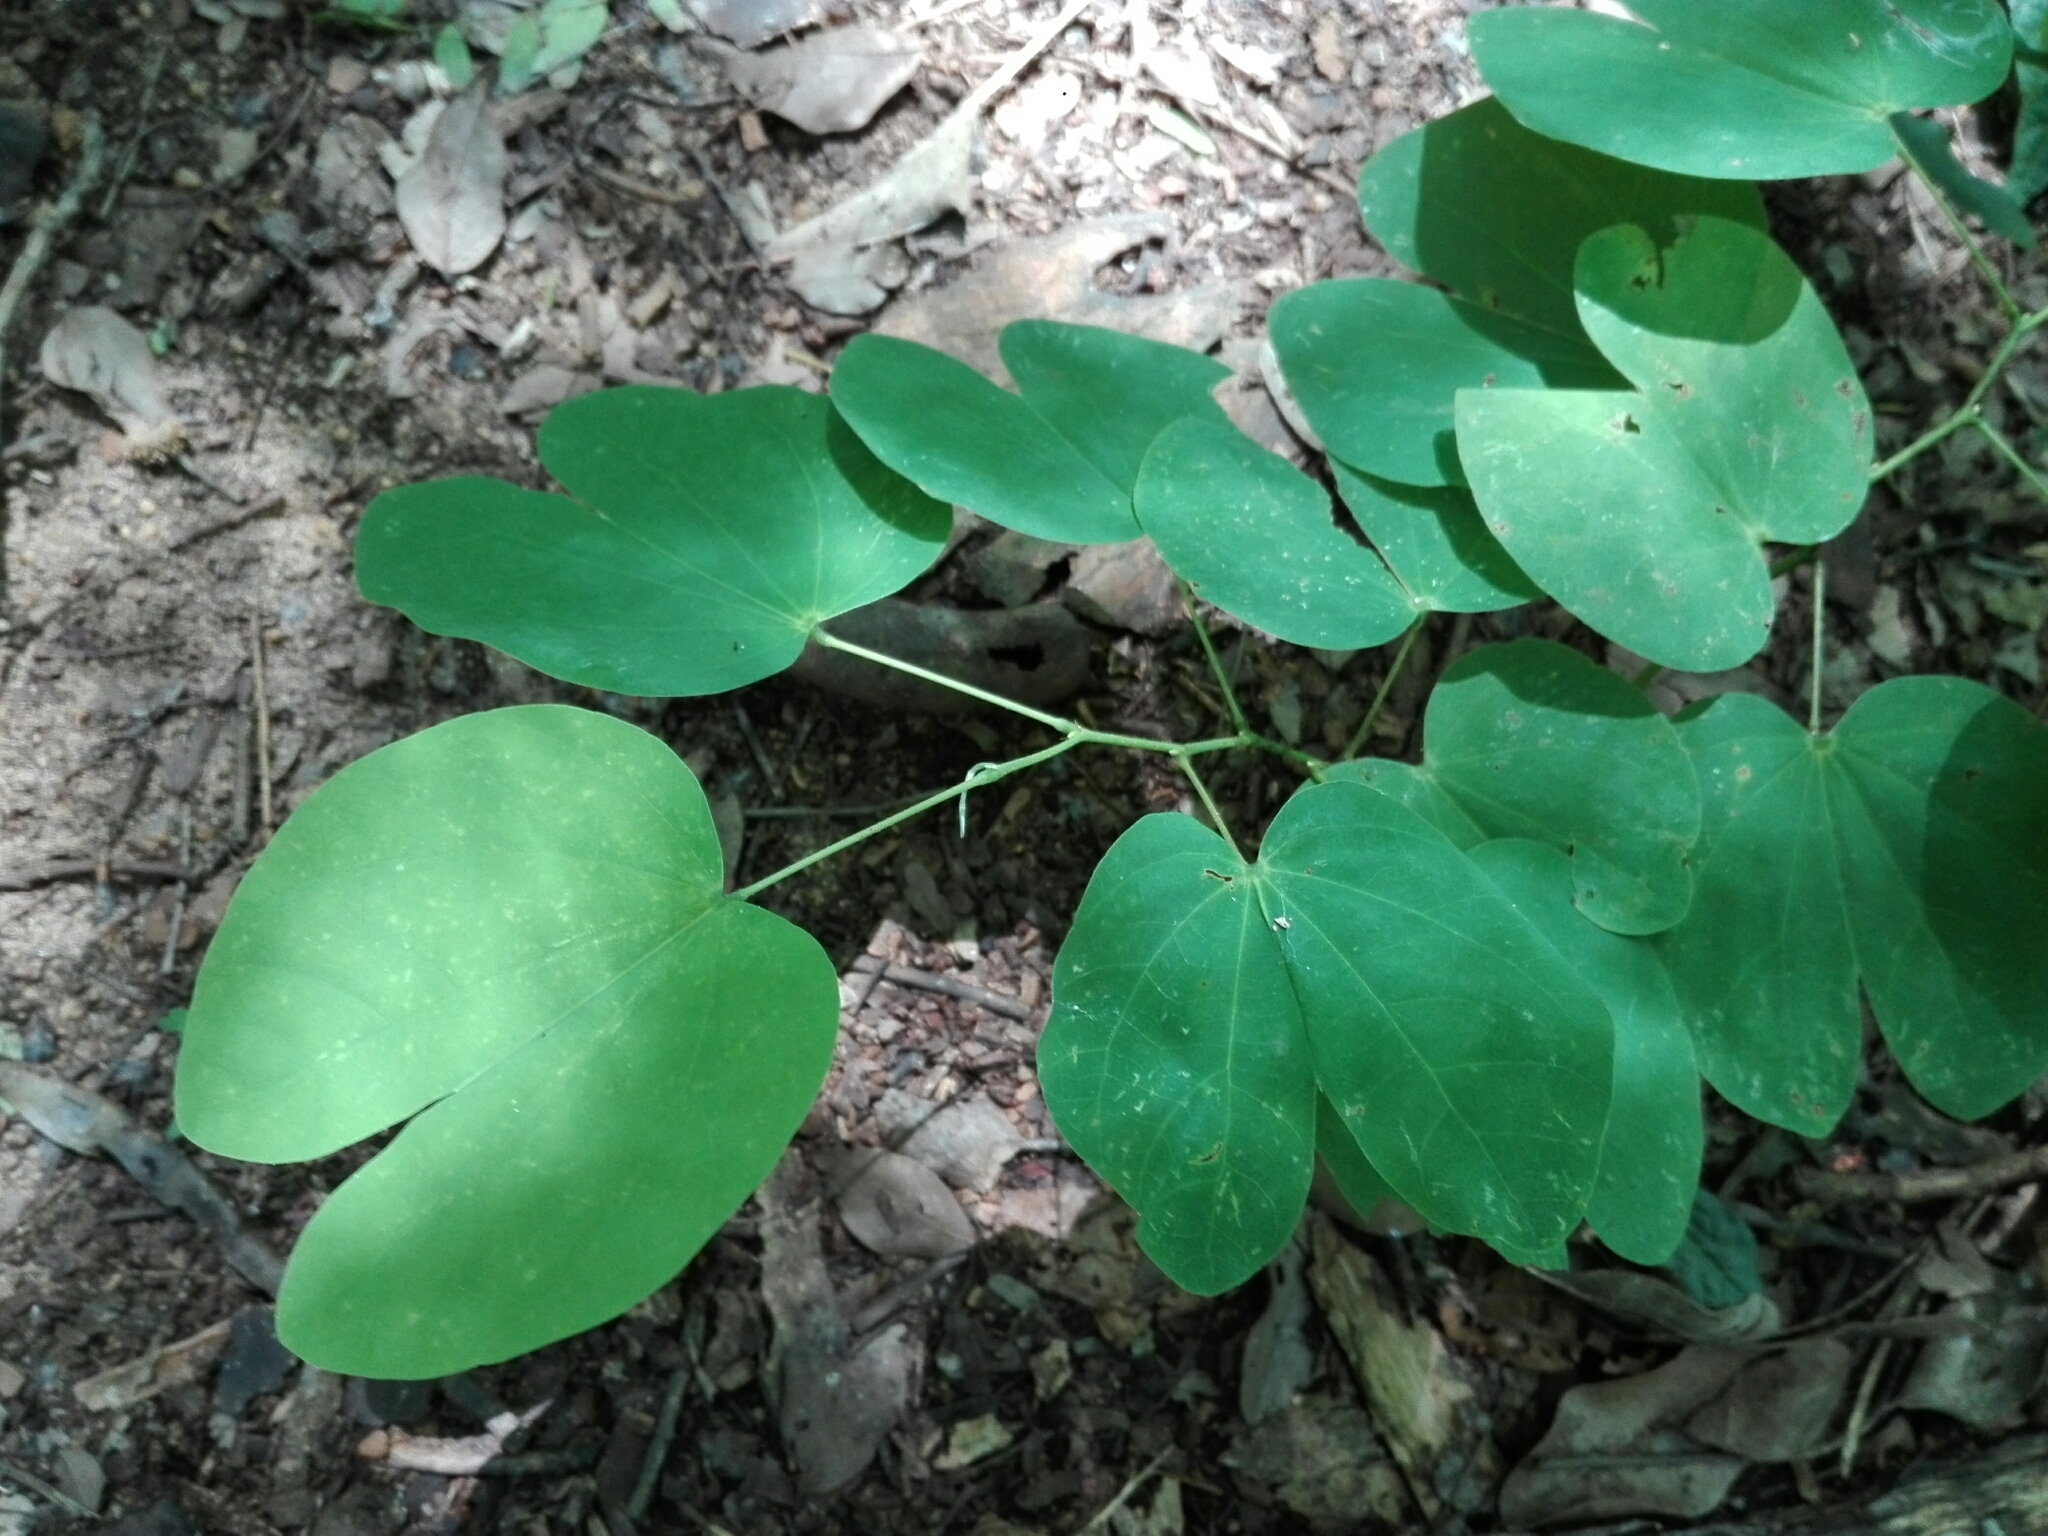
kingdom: Plantae
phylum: Tracheophyta
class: Magnoliopsida
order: Fabales
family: Fabaceae
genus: Bauhinia
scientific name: Bauhinia monandra
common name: Napoleon's plume
